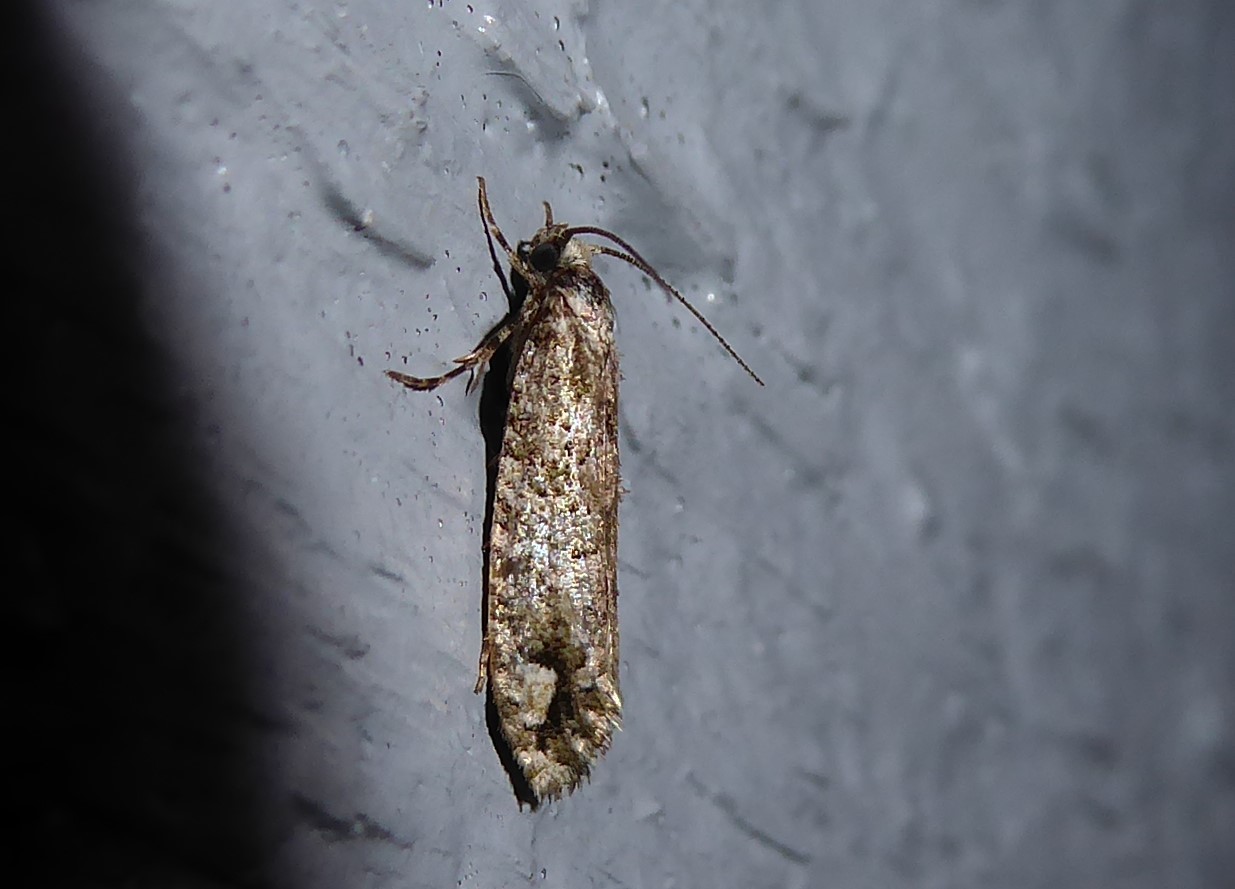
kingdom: Animalia
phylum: Arthropoda
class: Insecta
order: Lepidoptera
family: Tineidae
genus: Lysiphragma
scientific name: Lysiphragma howesii
